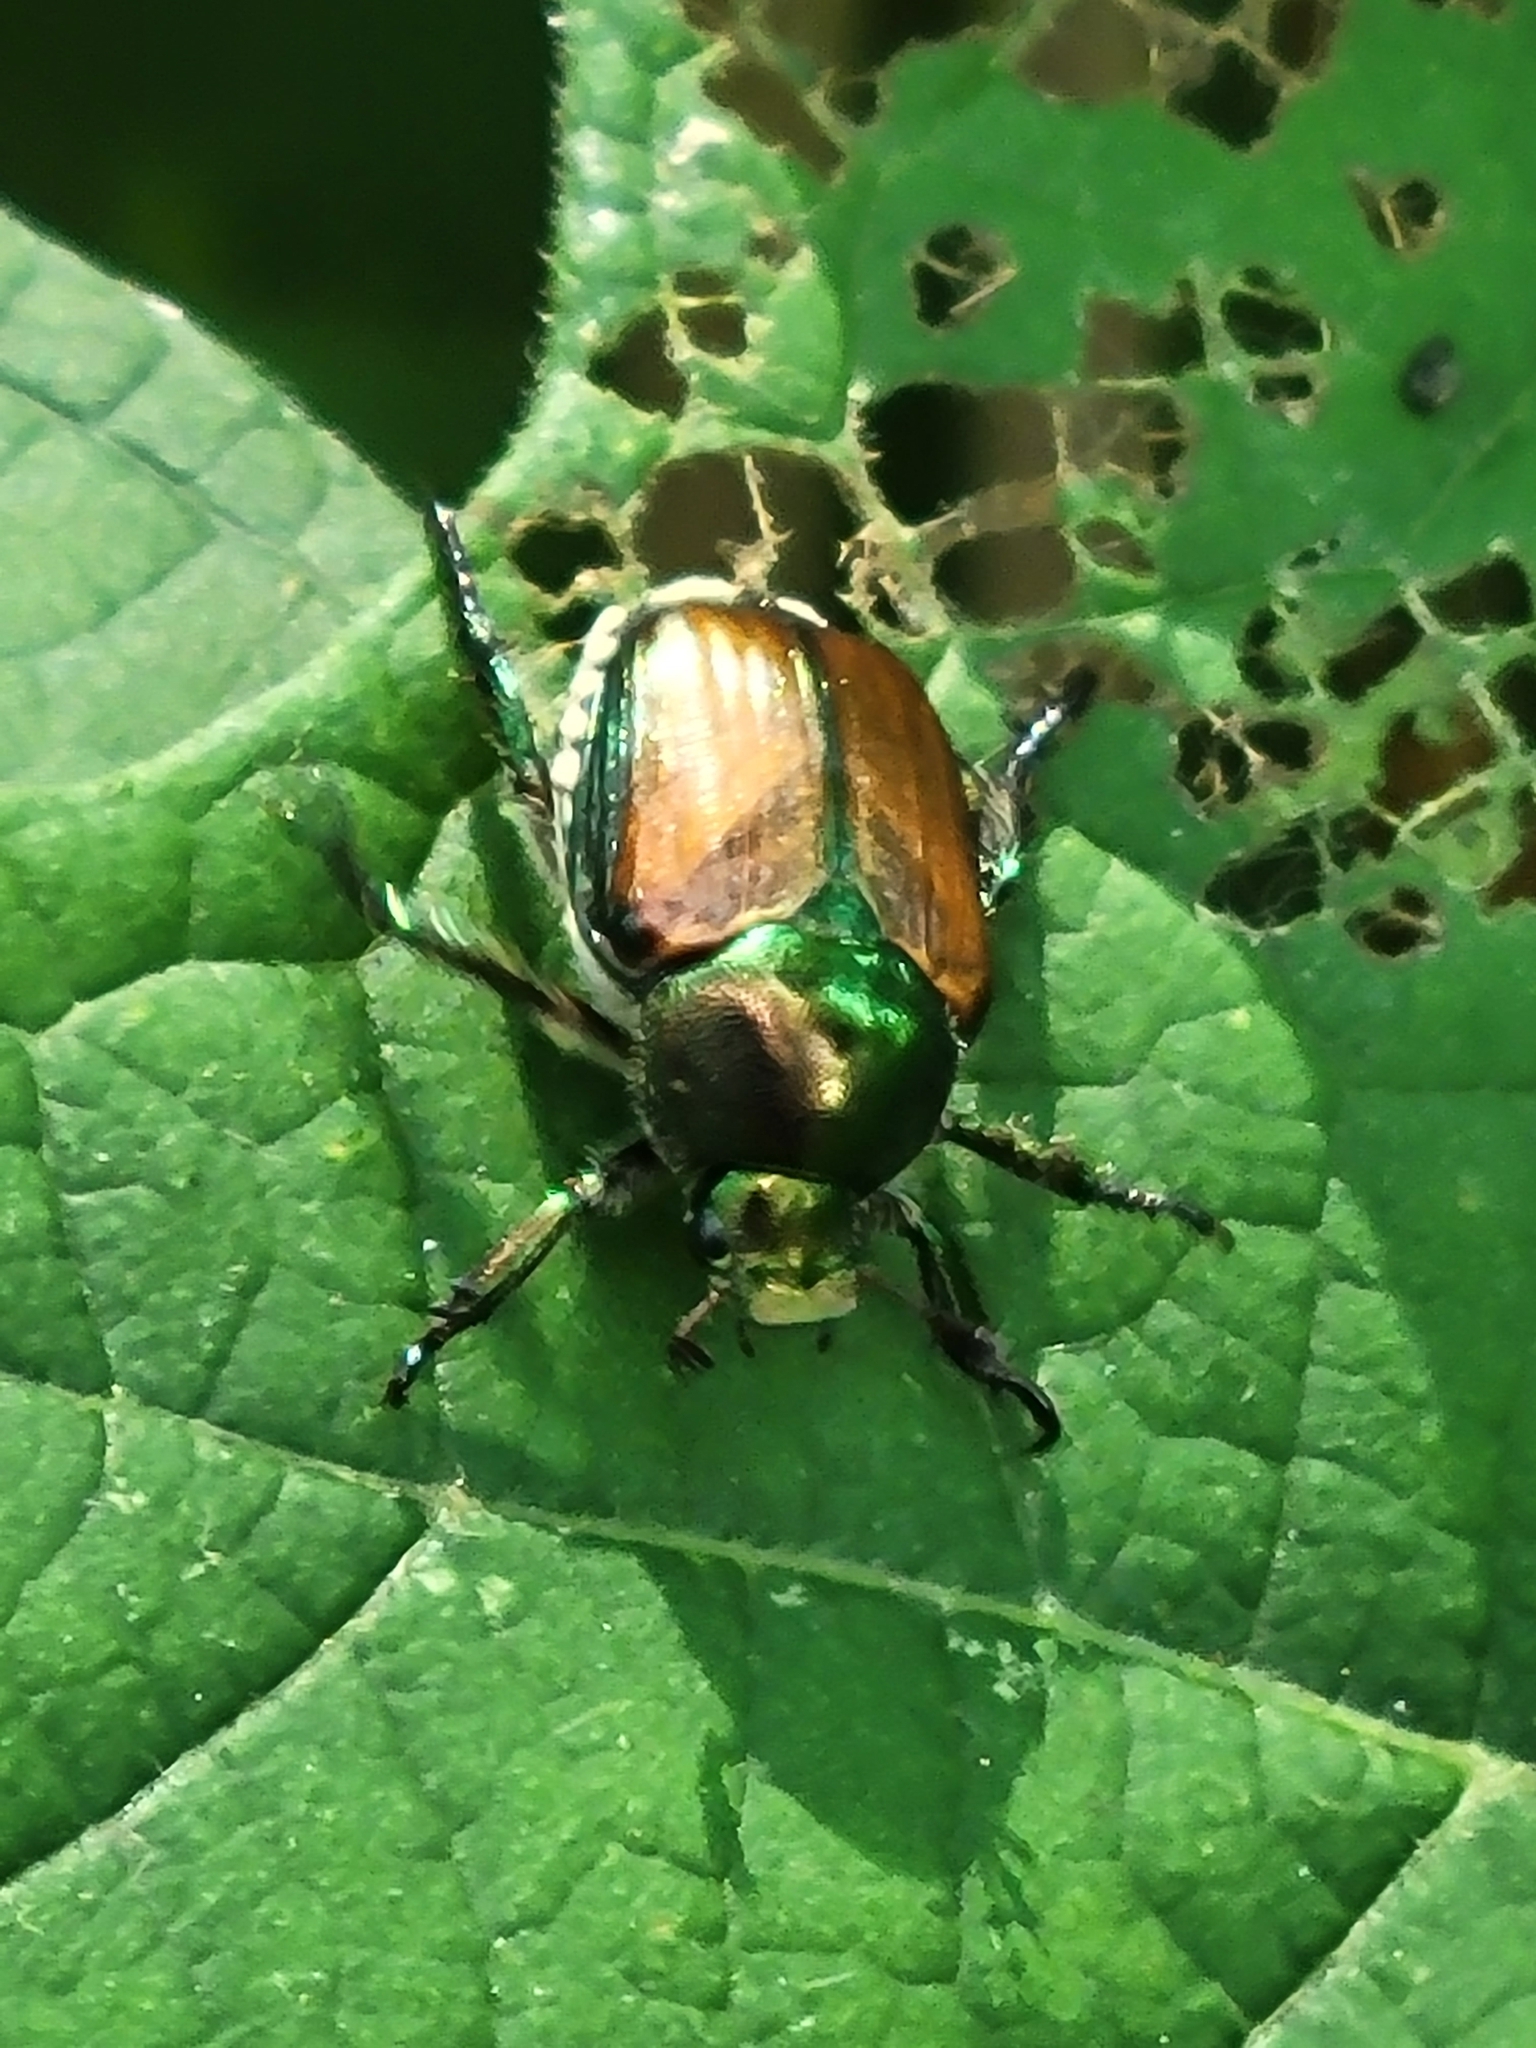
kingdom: Animalia
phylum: Arthropoda
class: Insecta
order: Coleoptera
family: Scarabaeidae
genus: Popillia
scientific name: Popillia japonica
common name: Japanese beetle
